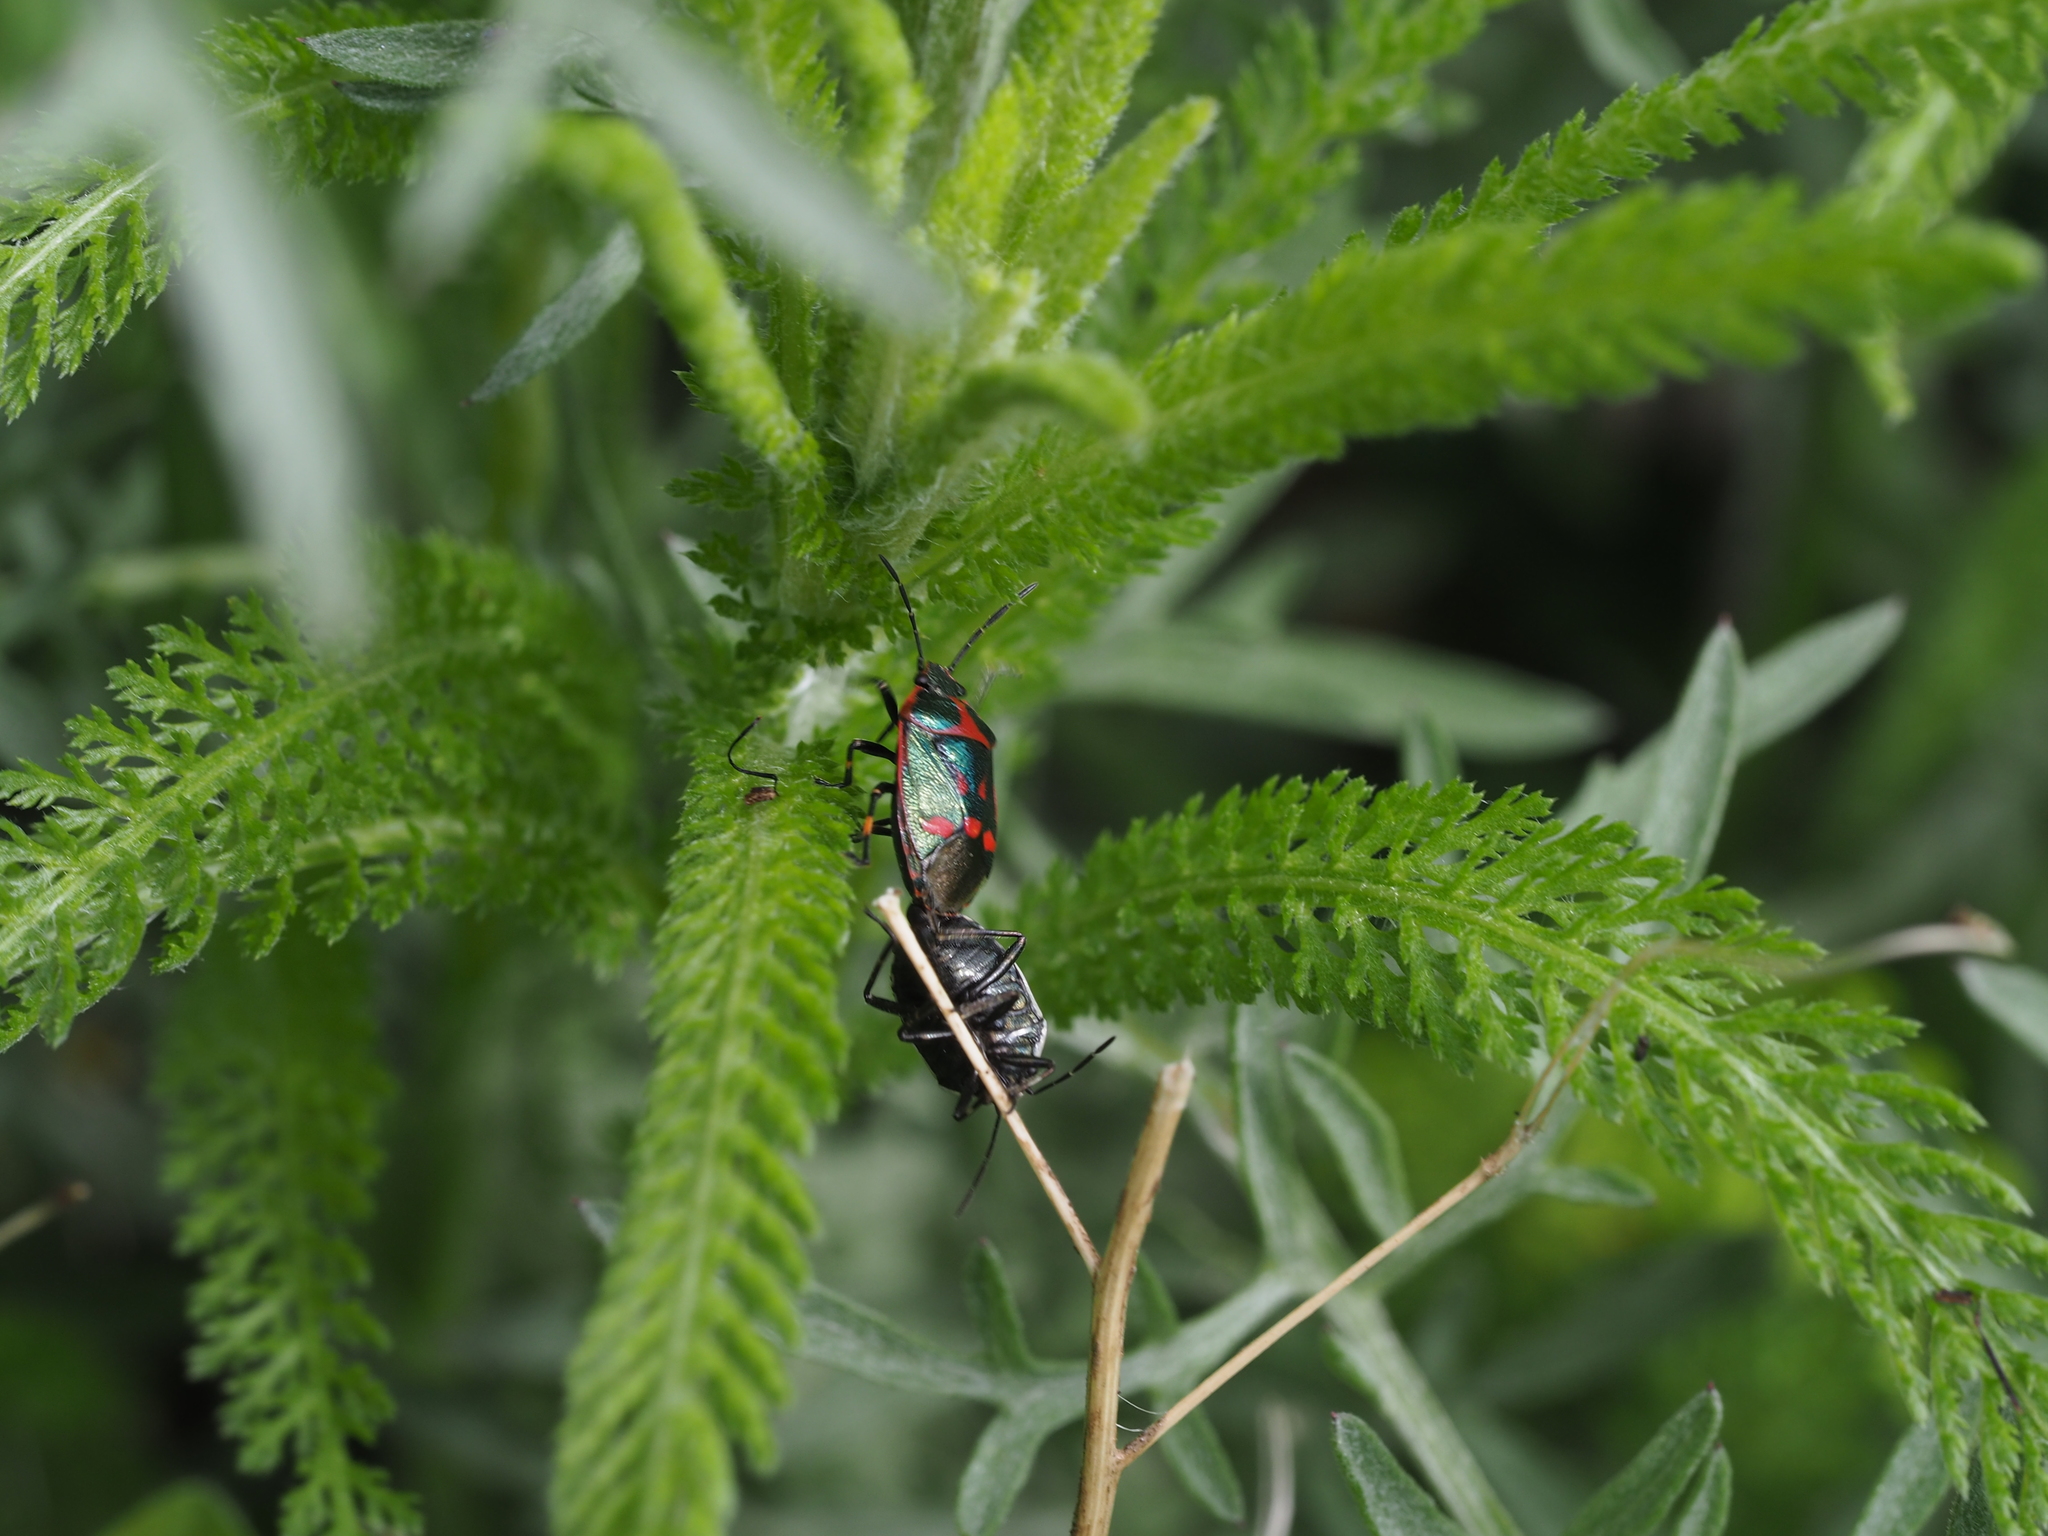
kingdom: Animalia
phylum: Arthropoda
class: Insecta
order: Hemiptera
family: Pentatomidae
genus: Eurydema
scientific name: Eurydema oleracea
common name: Cabbage bug
